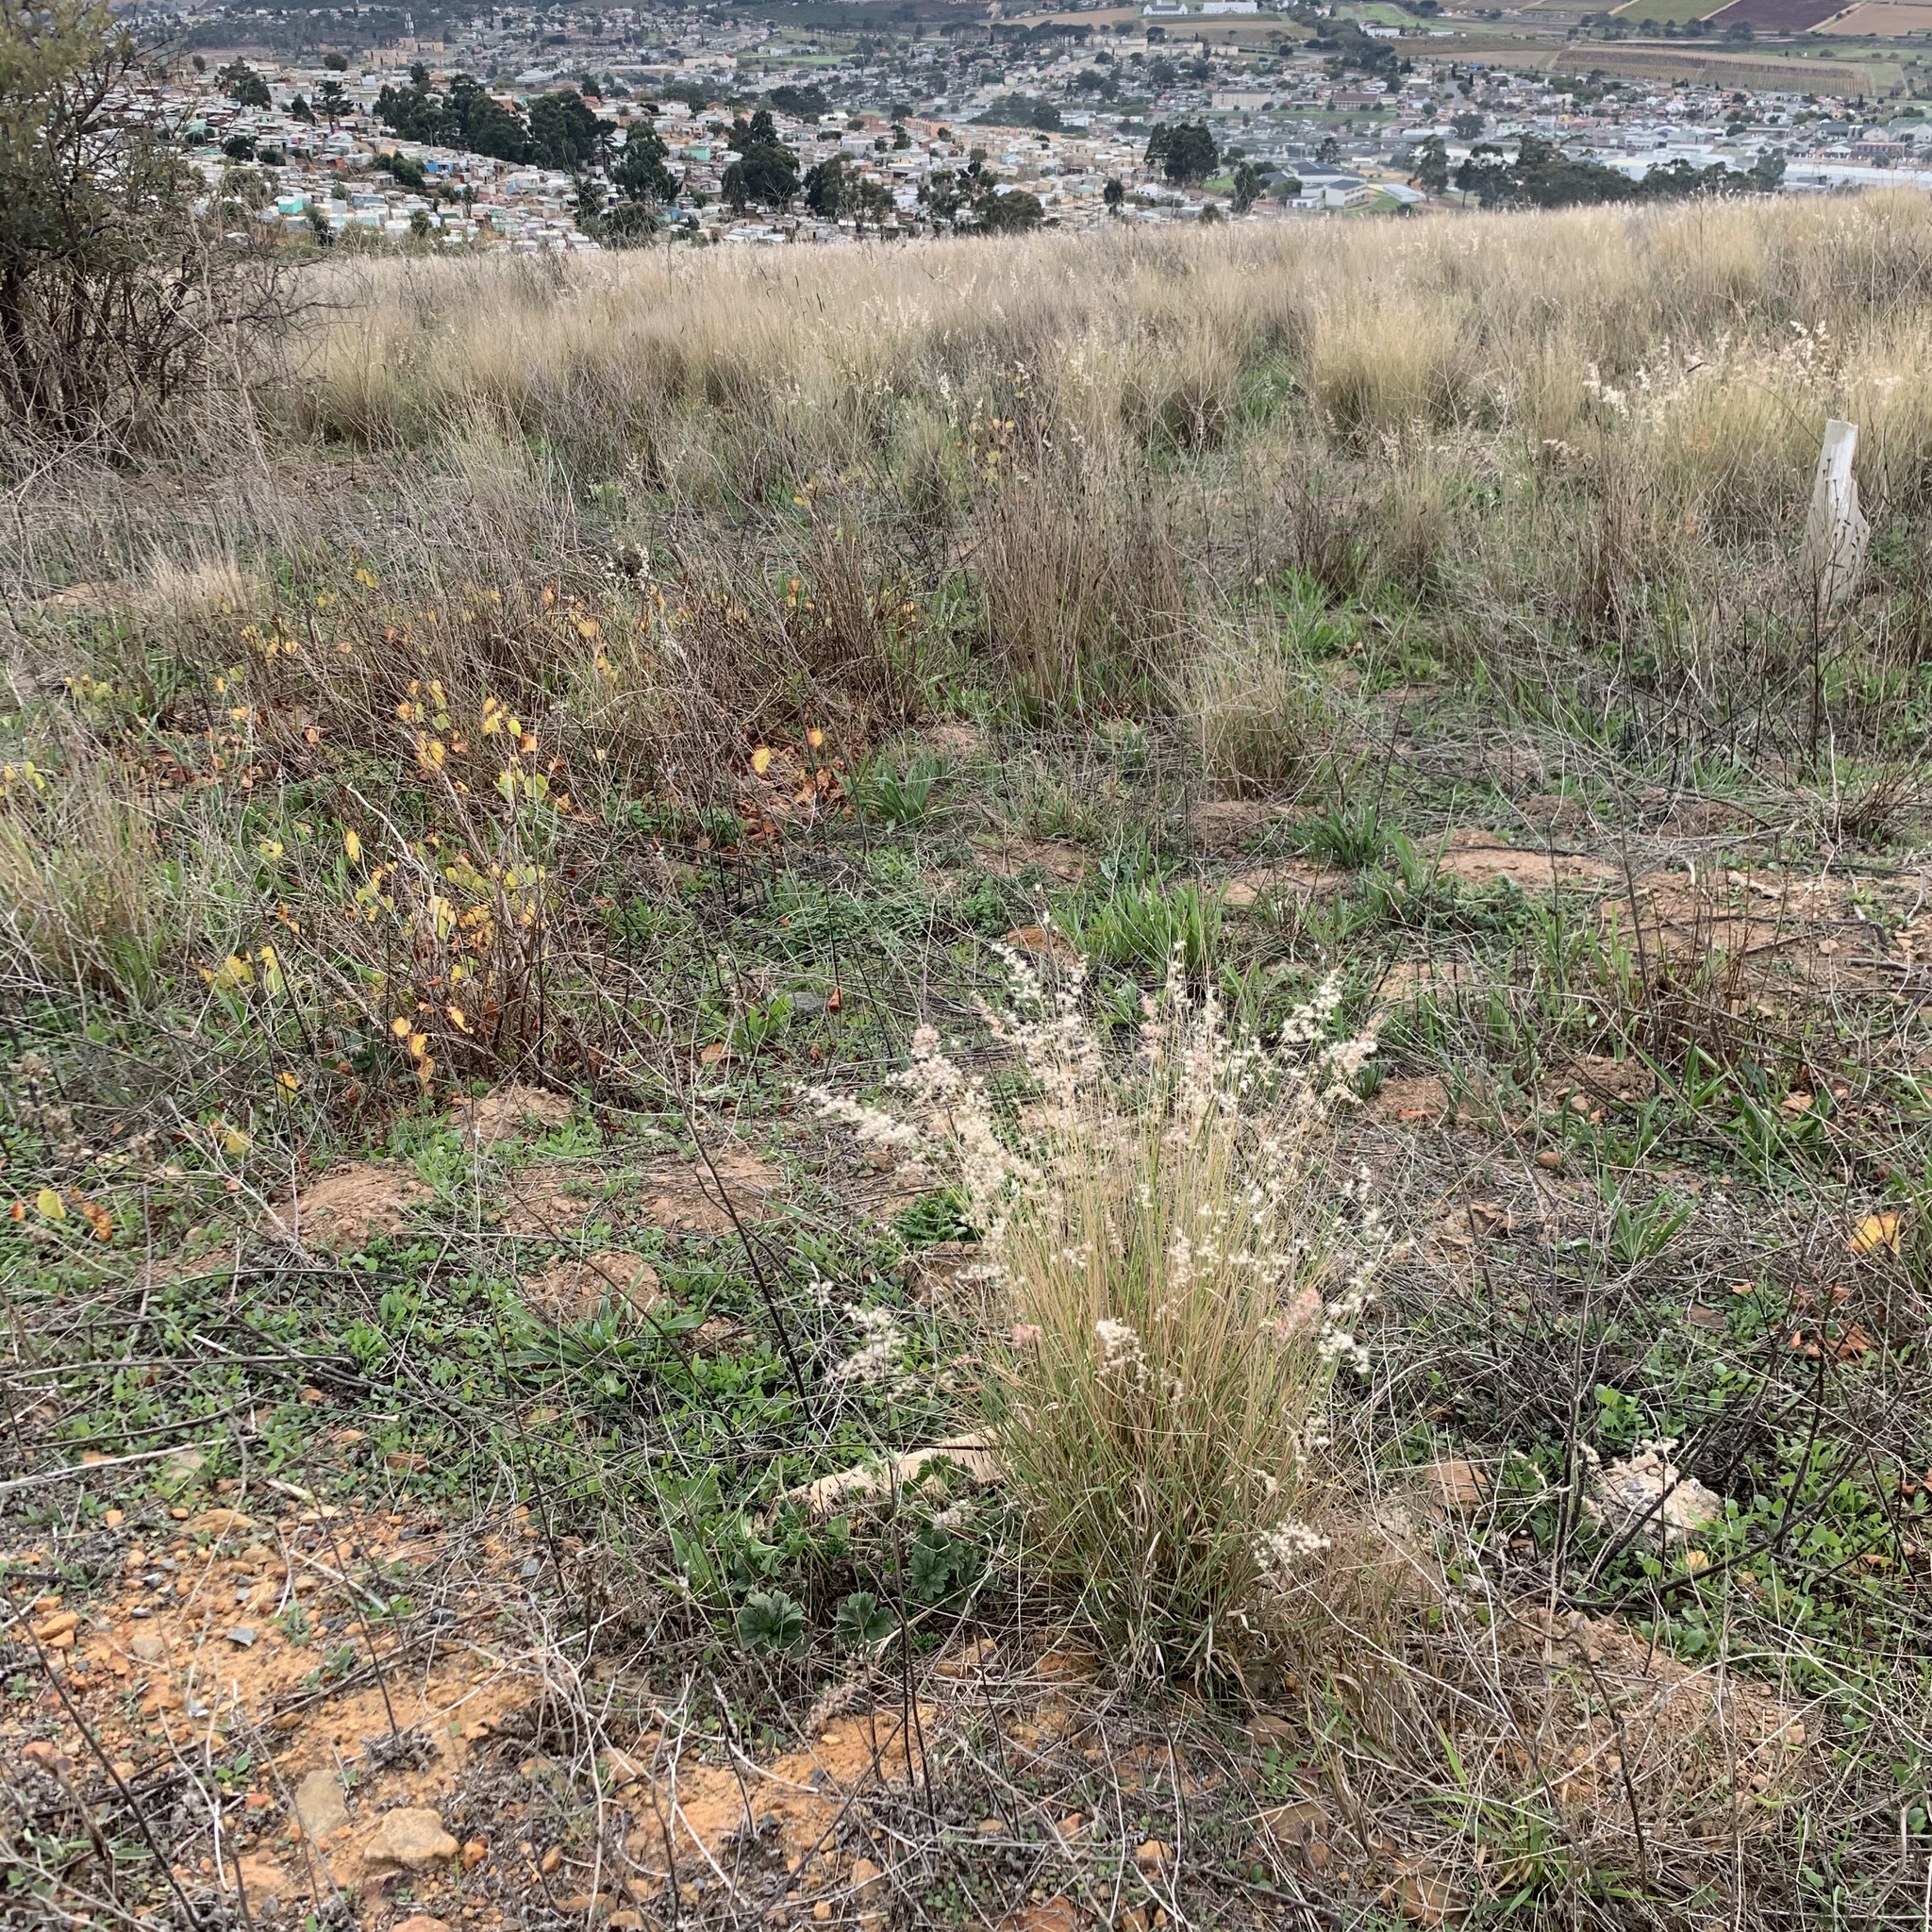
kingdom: Plantae
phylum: Tracheophyta
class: Liliopsida
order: Poales
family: Poaceae
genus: Melinis
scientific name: Melinis repens
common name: Rose natal grass
